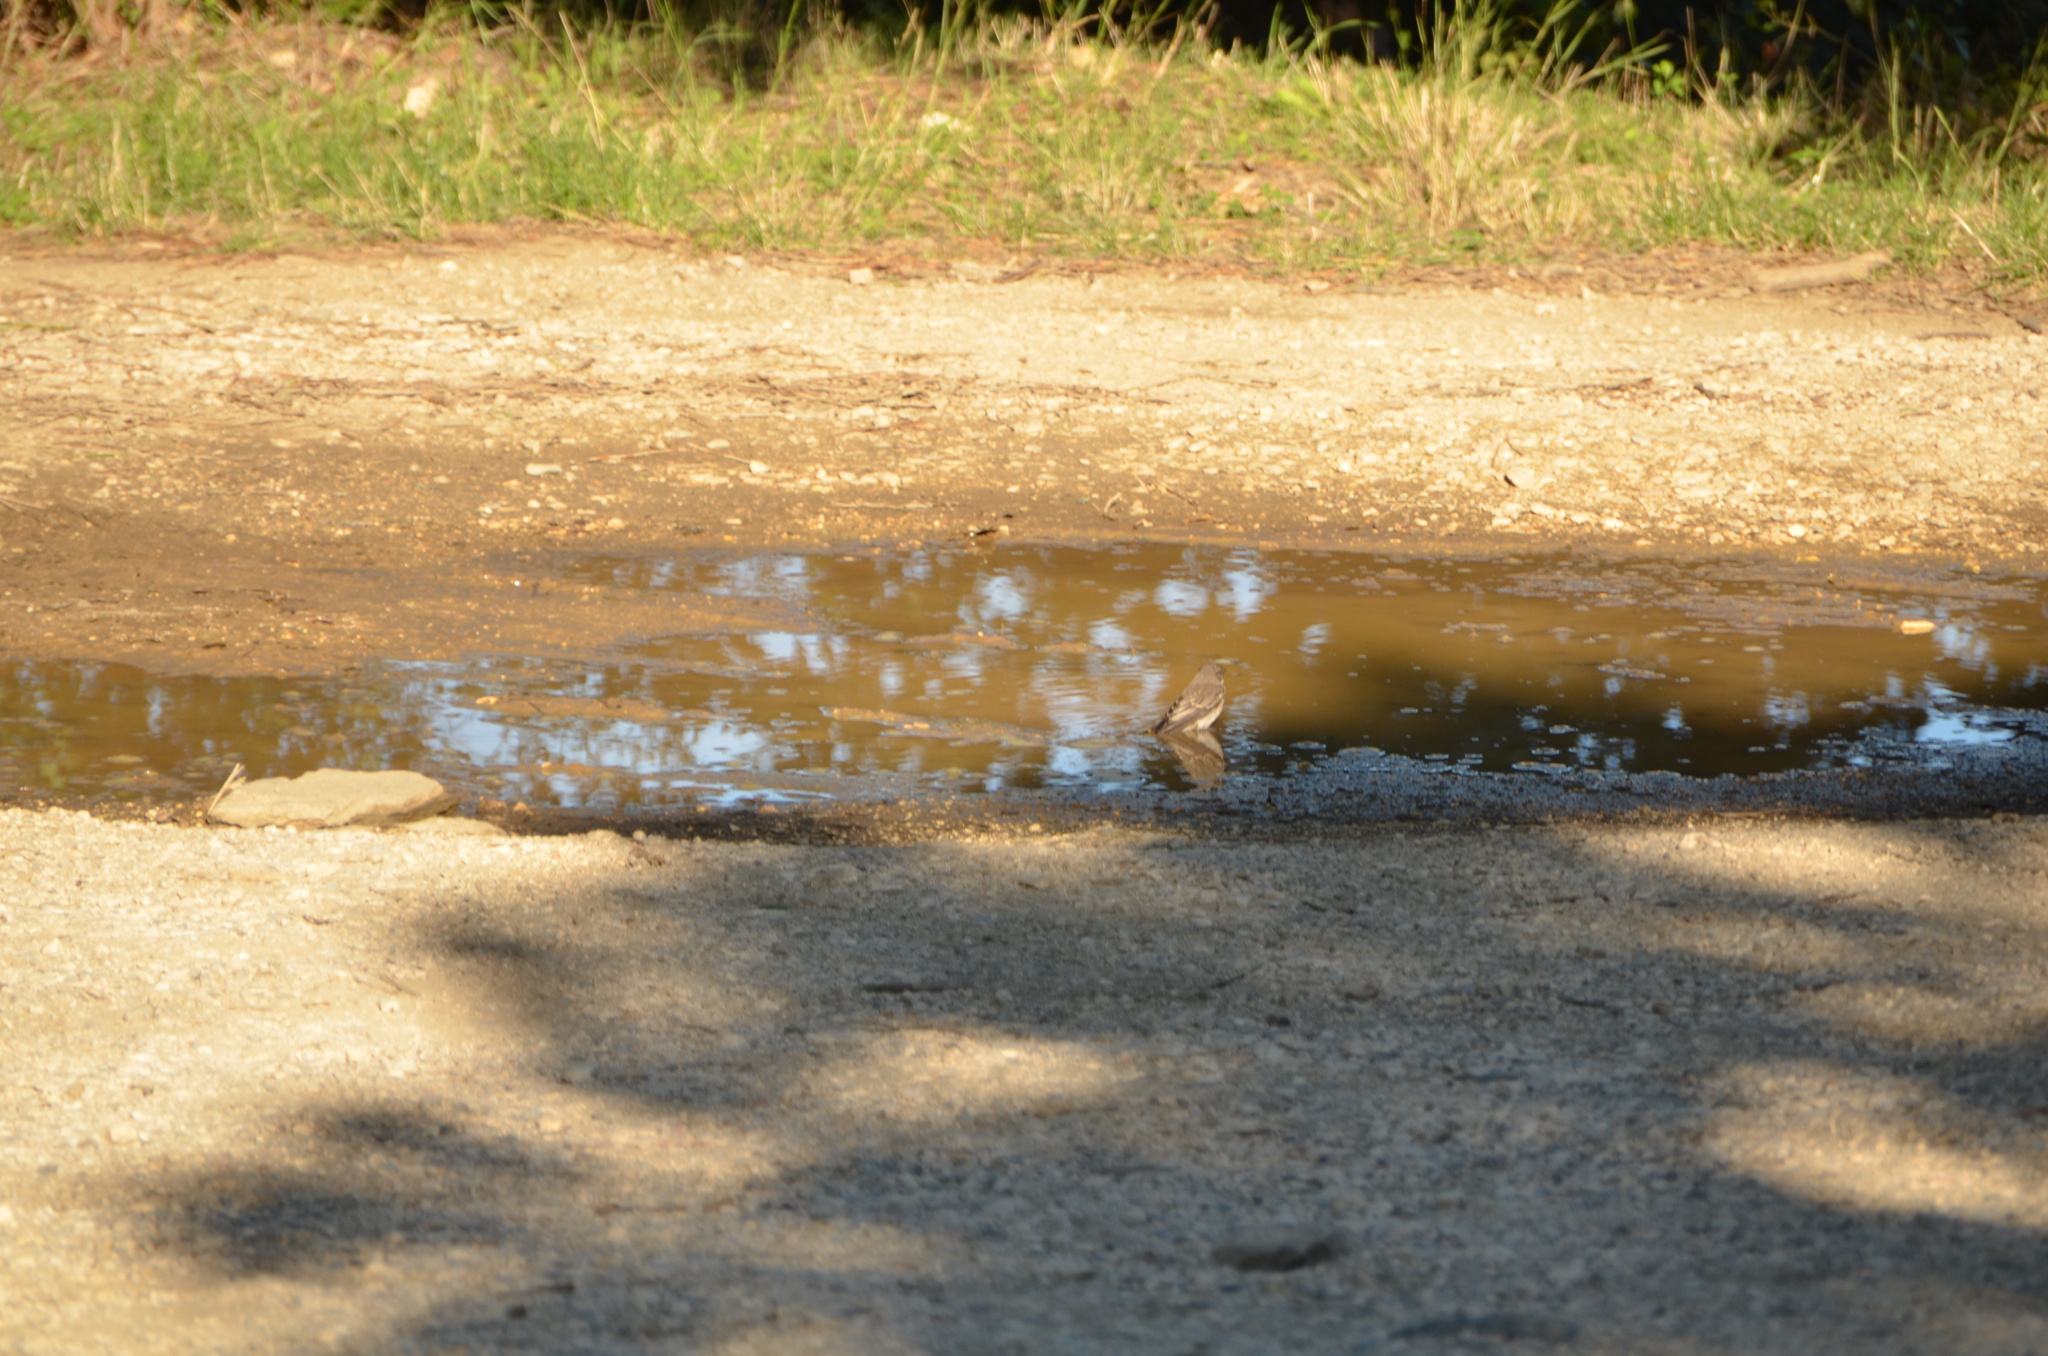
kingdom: Animalia
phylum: Chordata
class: Aves
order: Passeriformes
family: Muscicapidae
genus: Muscicapa
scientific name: Muscicapa striata
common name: Spotted flycatcher
